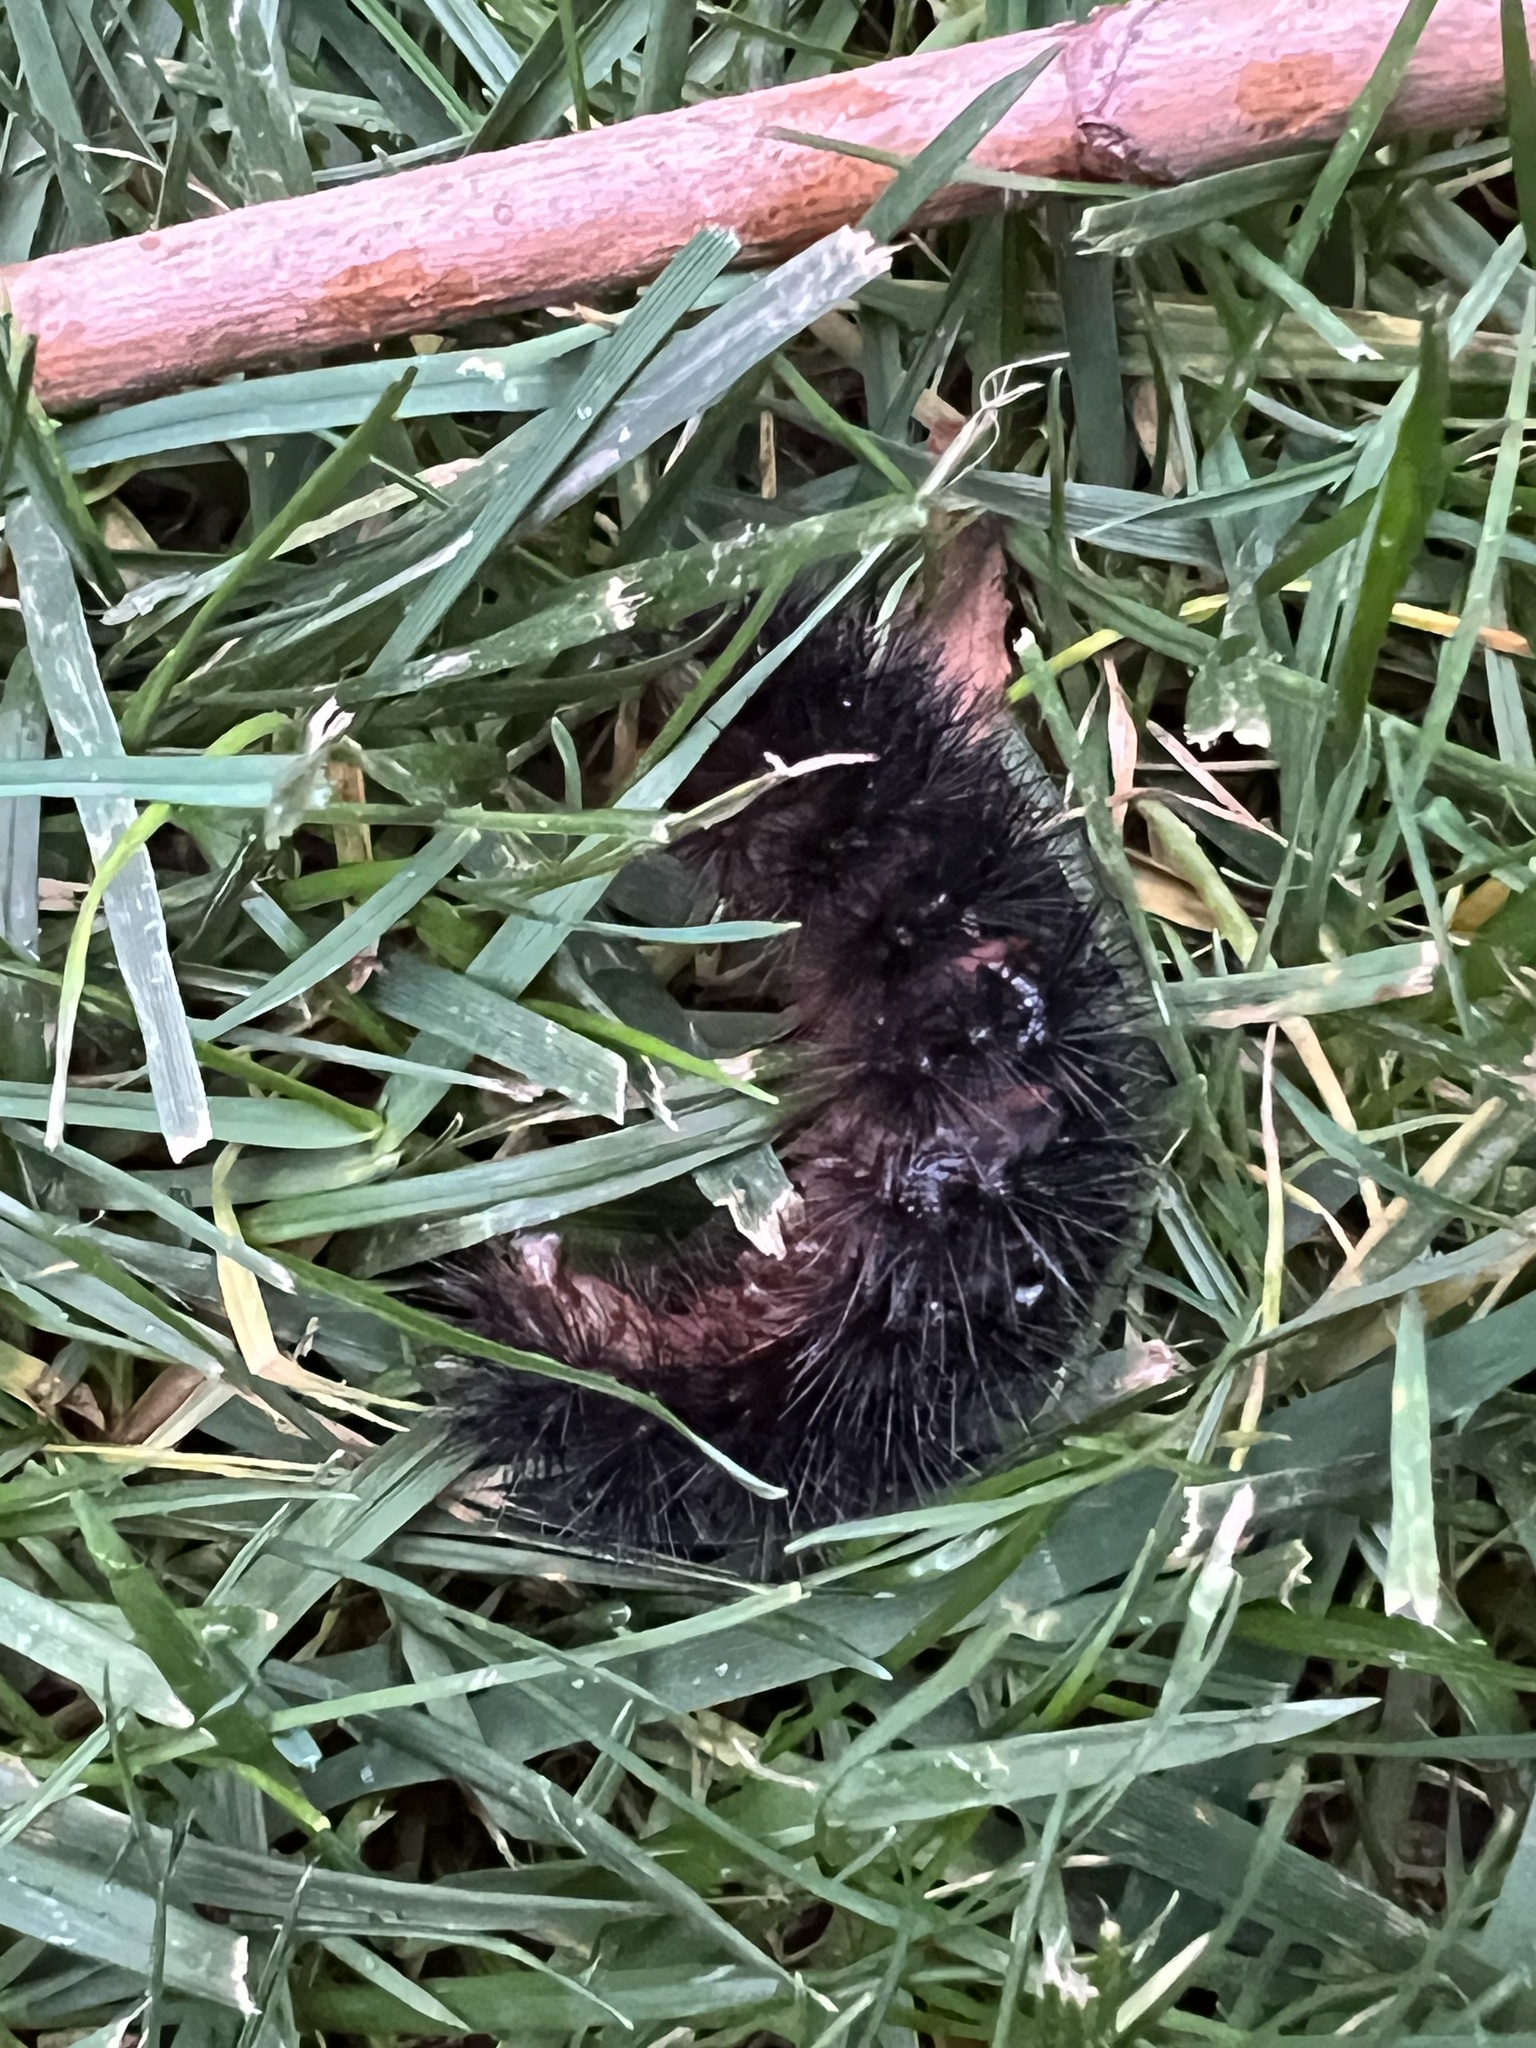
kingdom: Animalia
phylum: Arthropoda
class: Insecta
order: Lepidoptera
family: Erebidae
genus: Hypercompe
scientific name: Hypercompe scribonia
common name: Giant leopard moth
